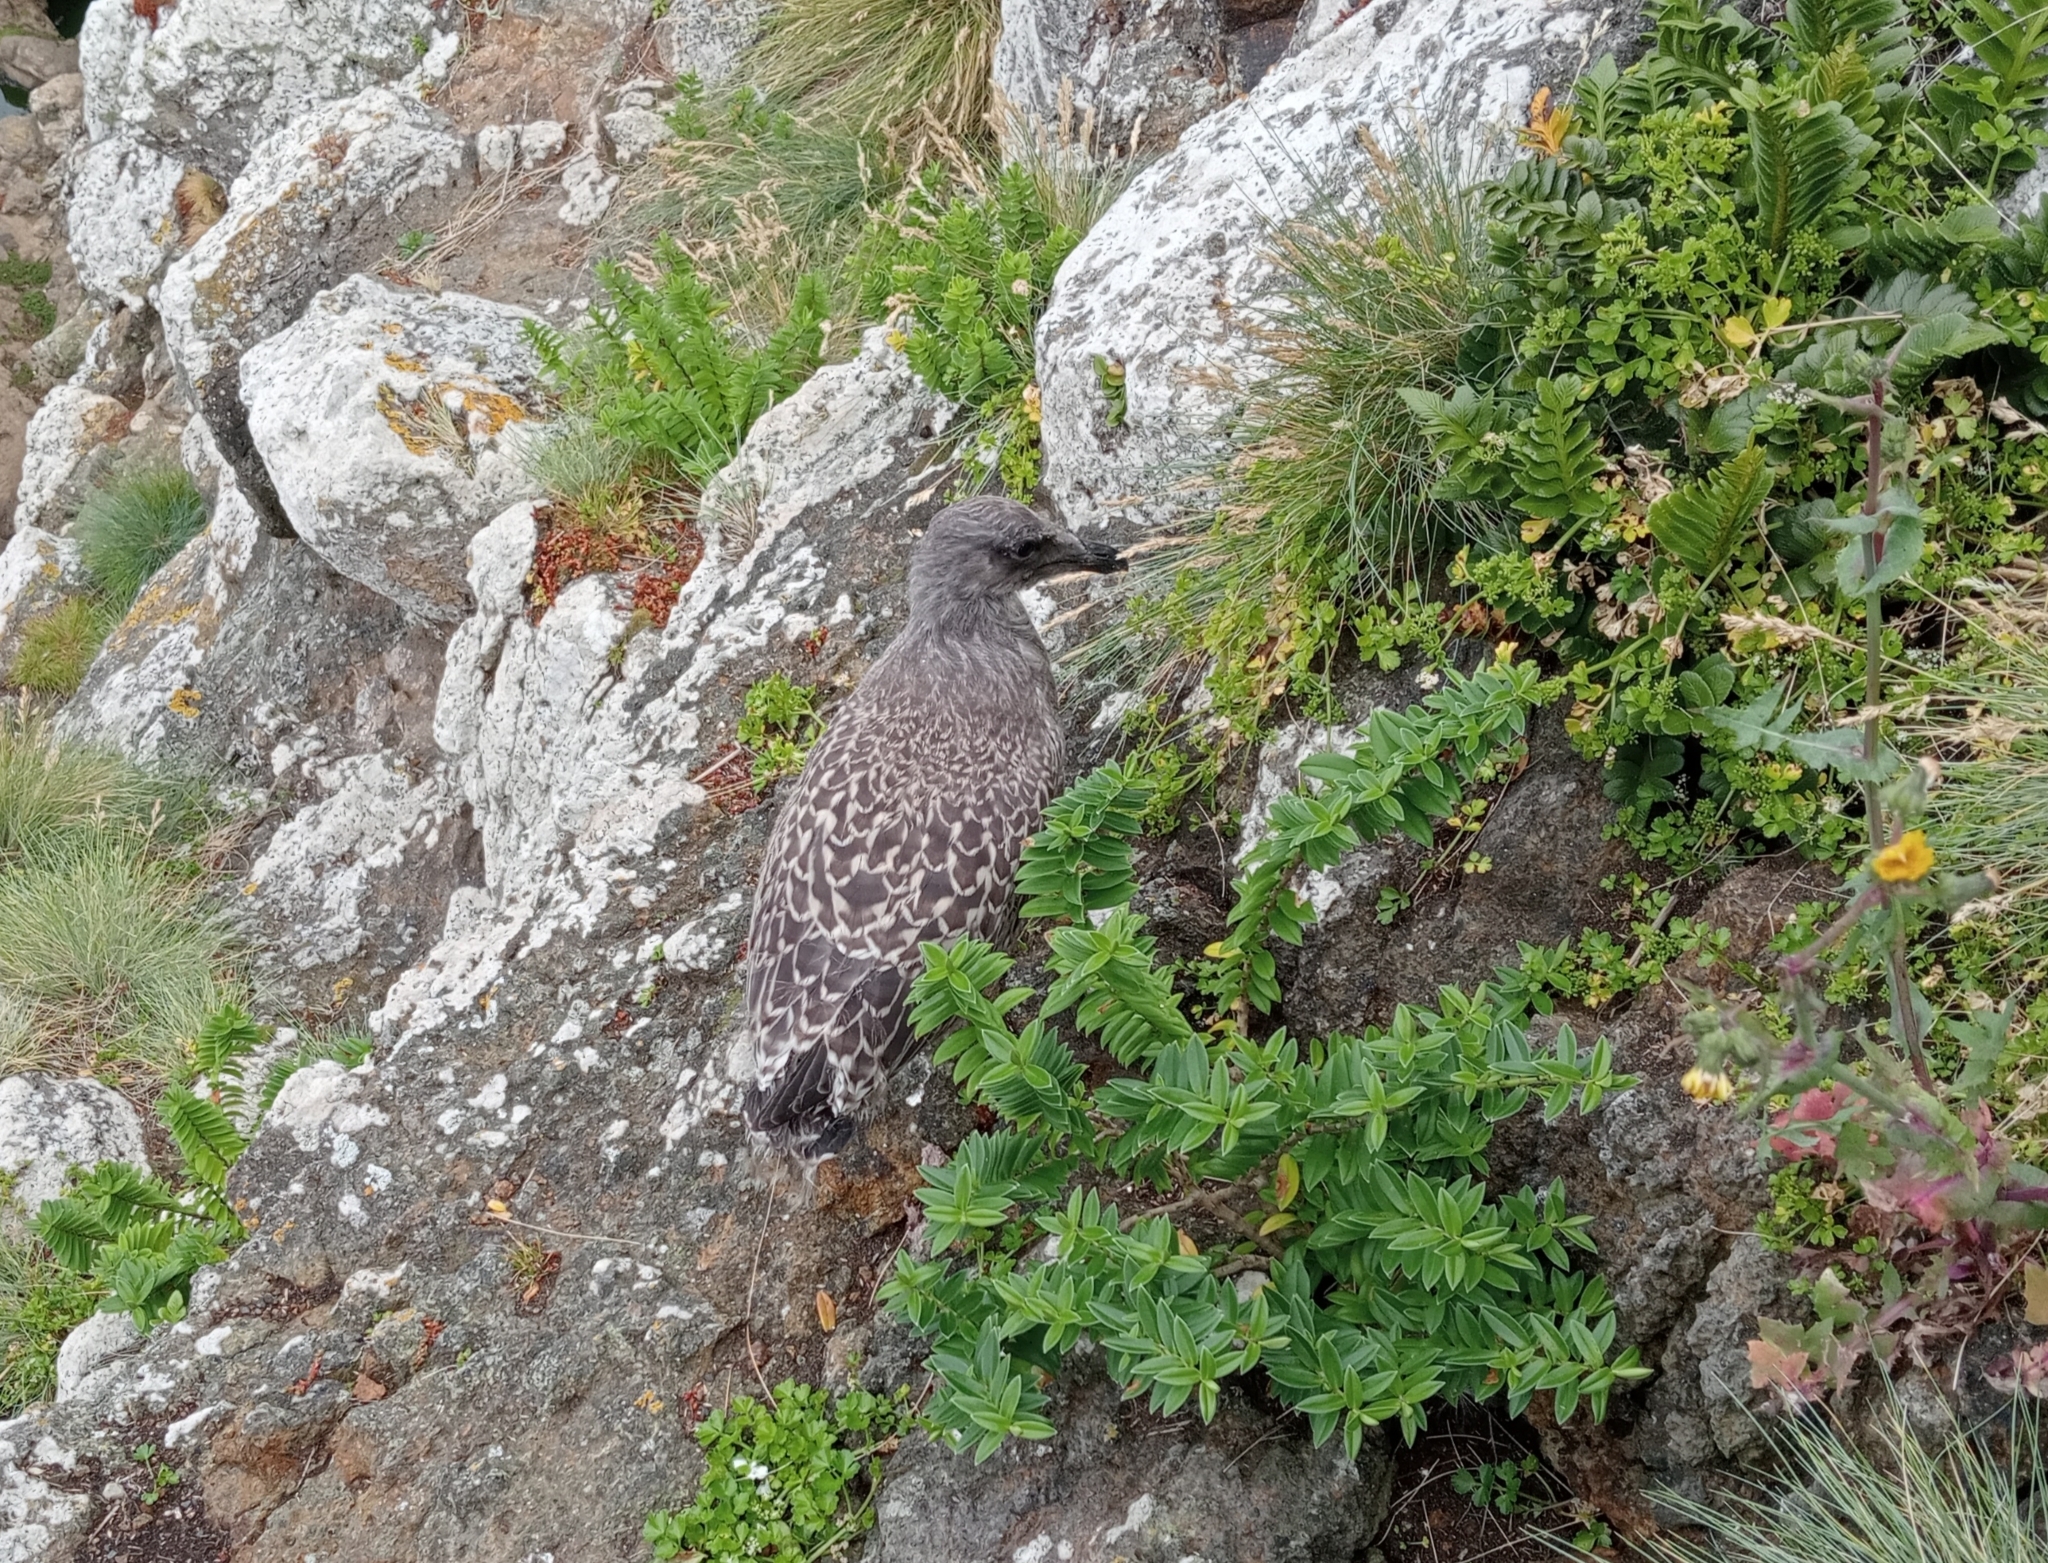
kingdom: Animalia
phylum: Chordata
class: Aves
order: Charadriiformes
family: Laridae
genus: Larus
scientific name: Larus dominicanus
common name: Kelp gull
